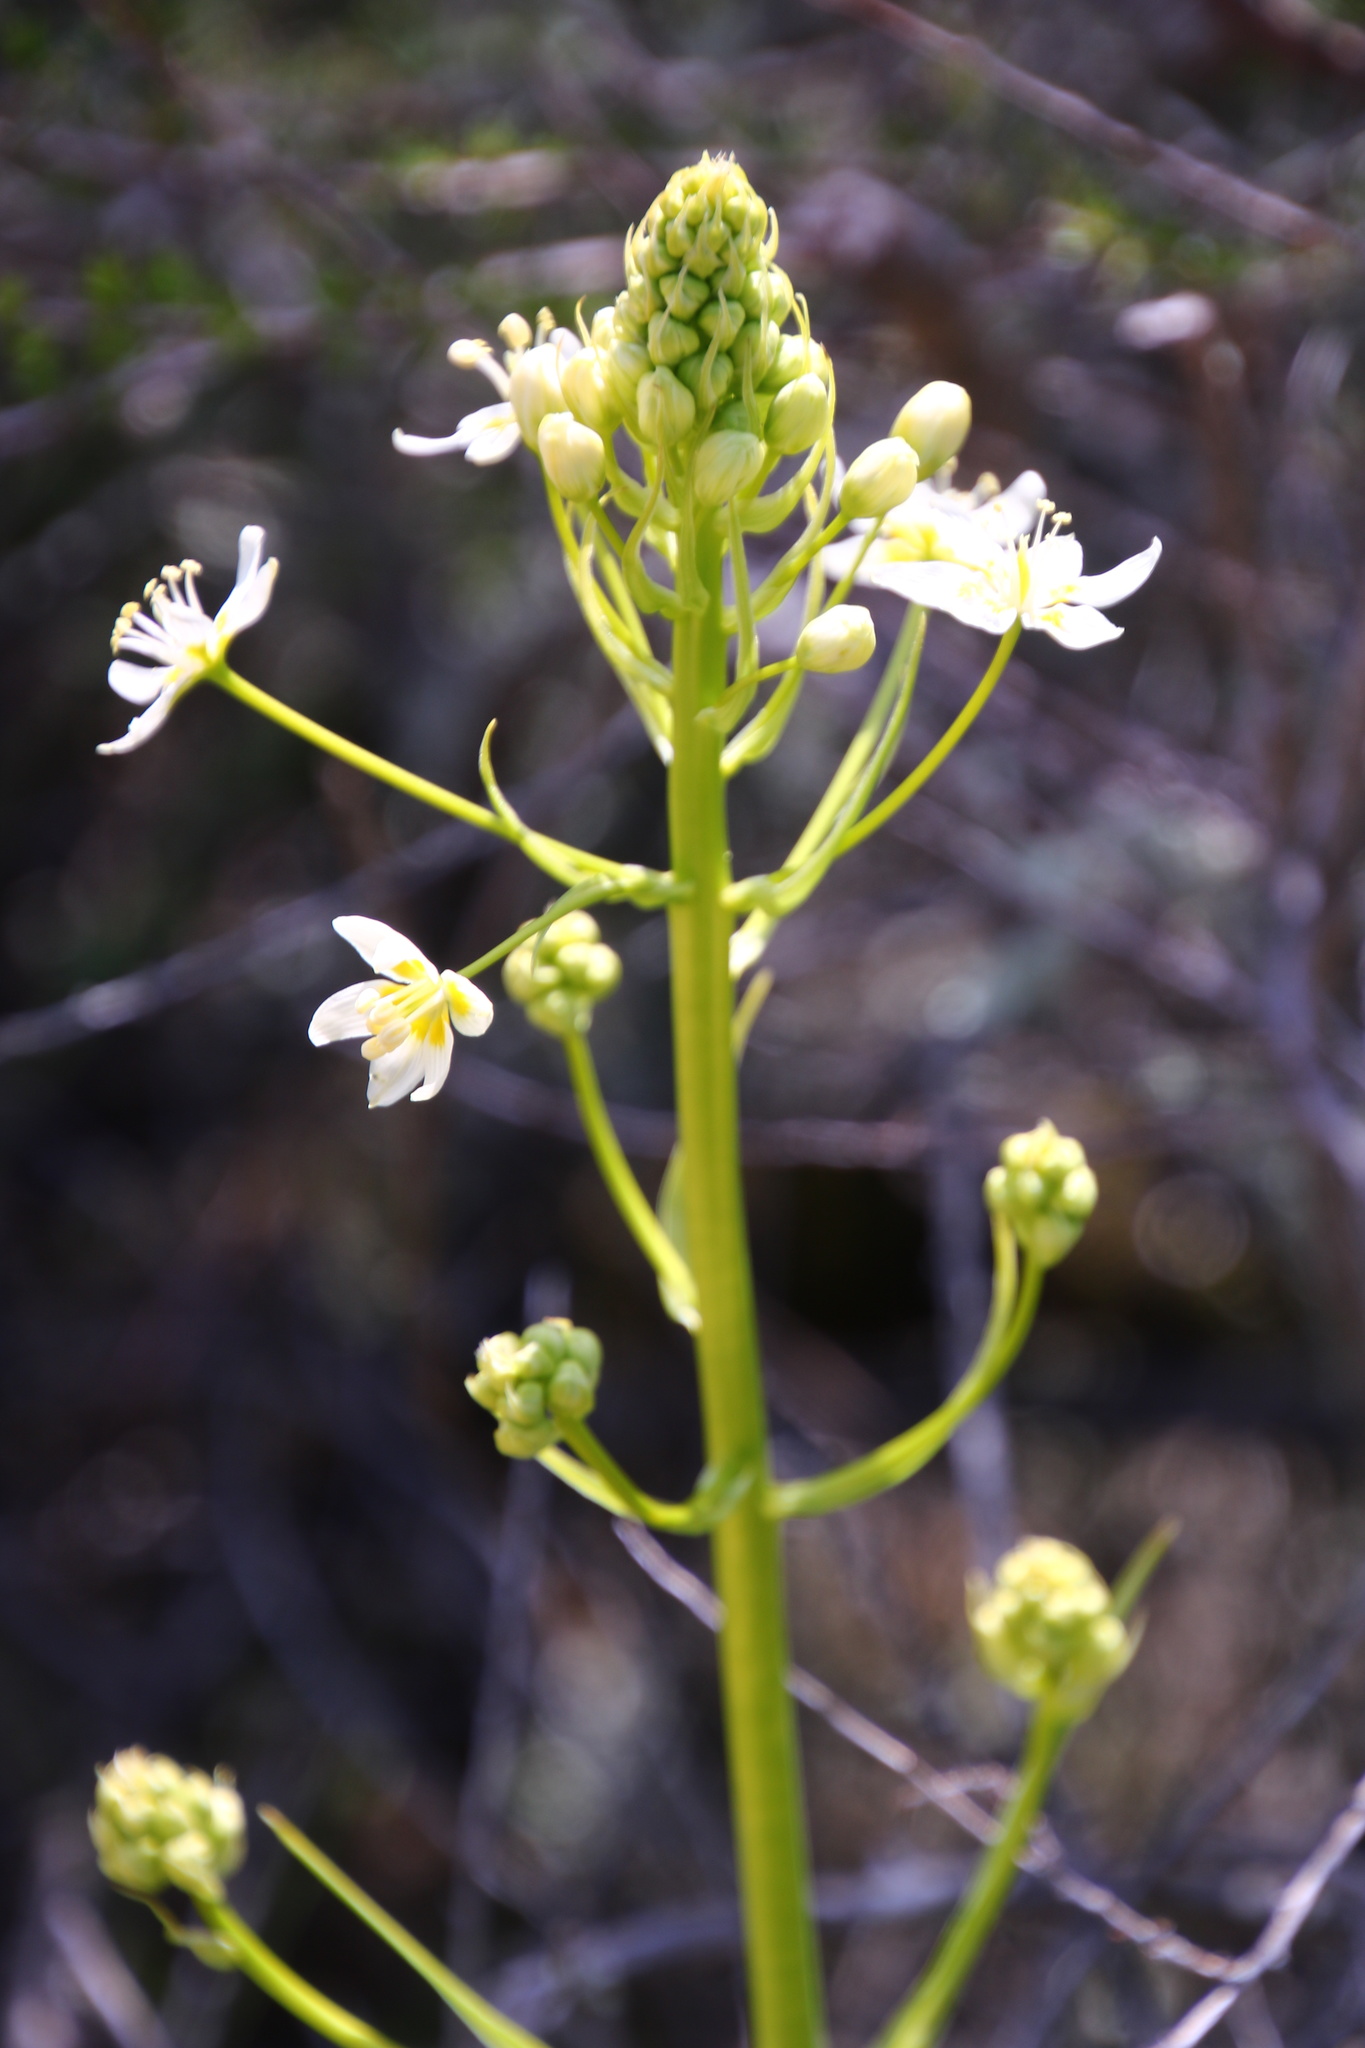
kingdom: Plantae
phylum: Tracheophyta
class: Liliopsida
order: Liliales
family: Melanthiaceae
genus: Toxicoscordion
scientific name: Toxicoscordion fremontii
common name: Fremont's death camas
